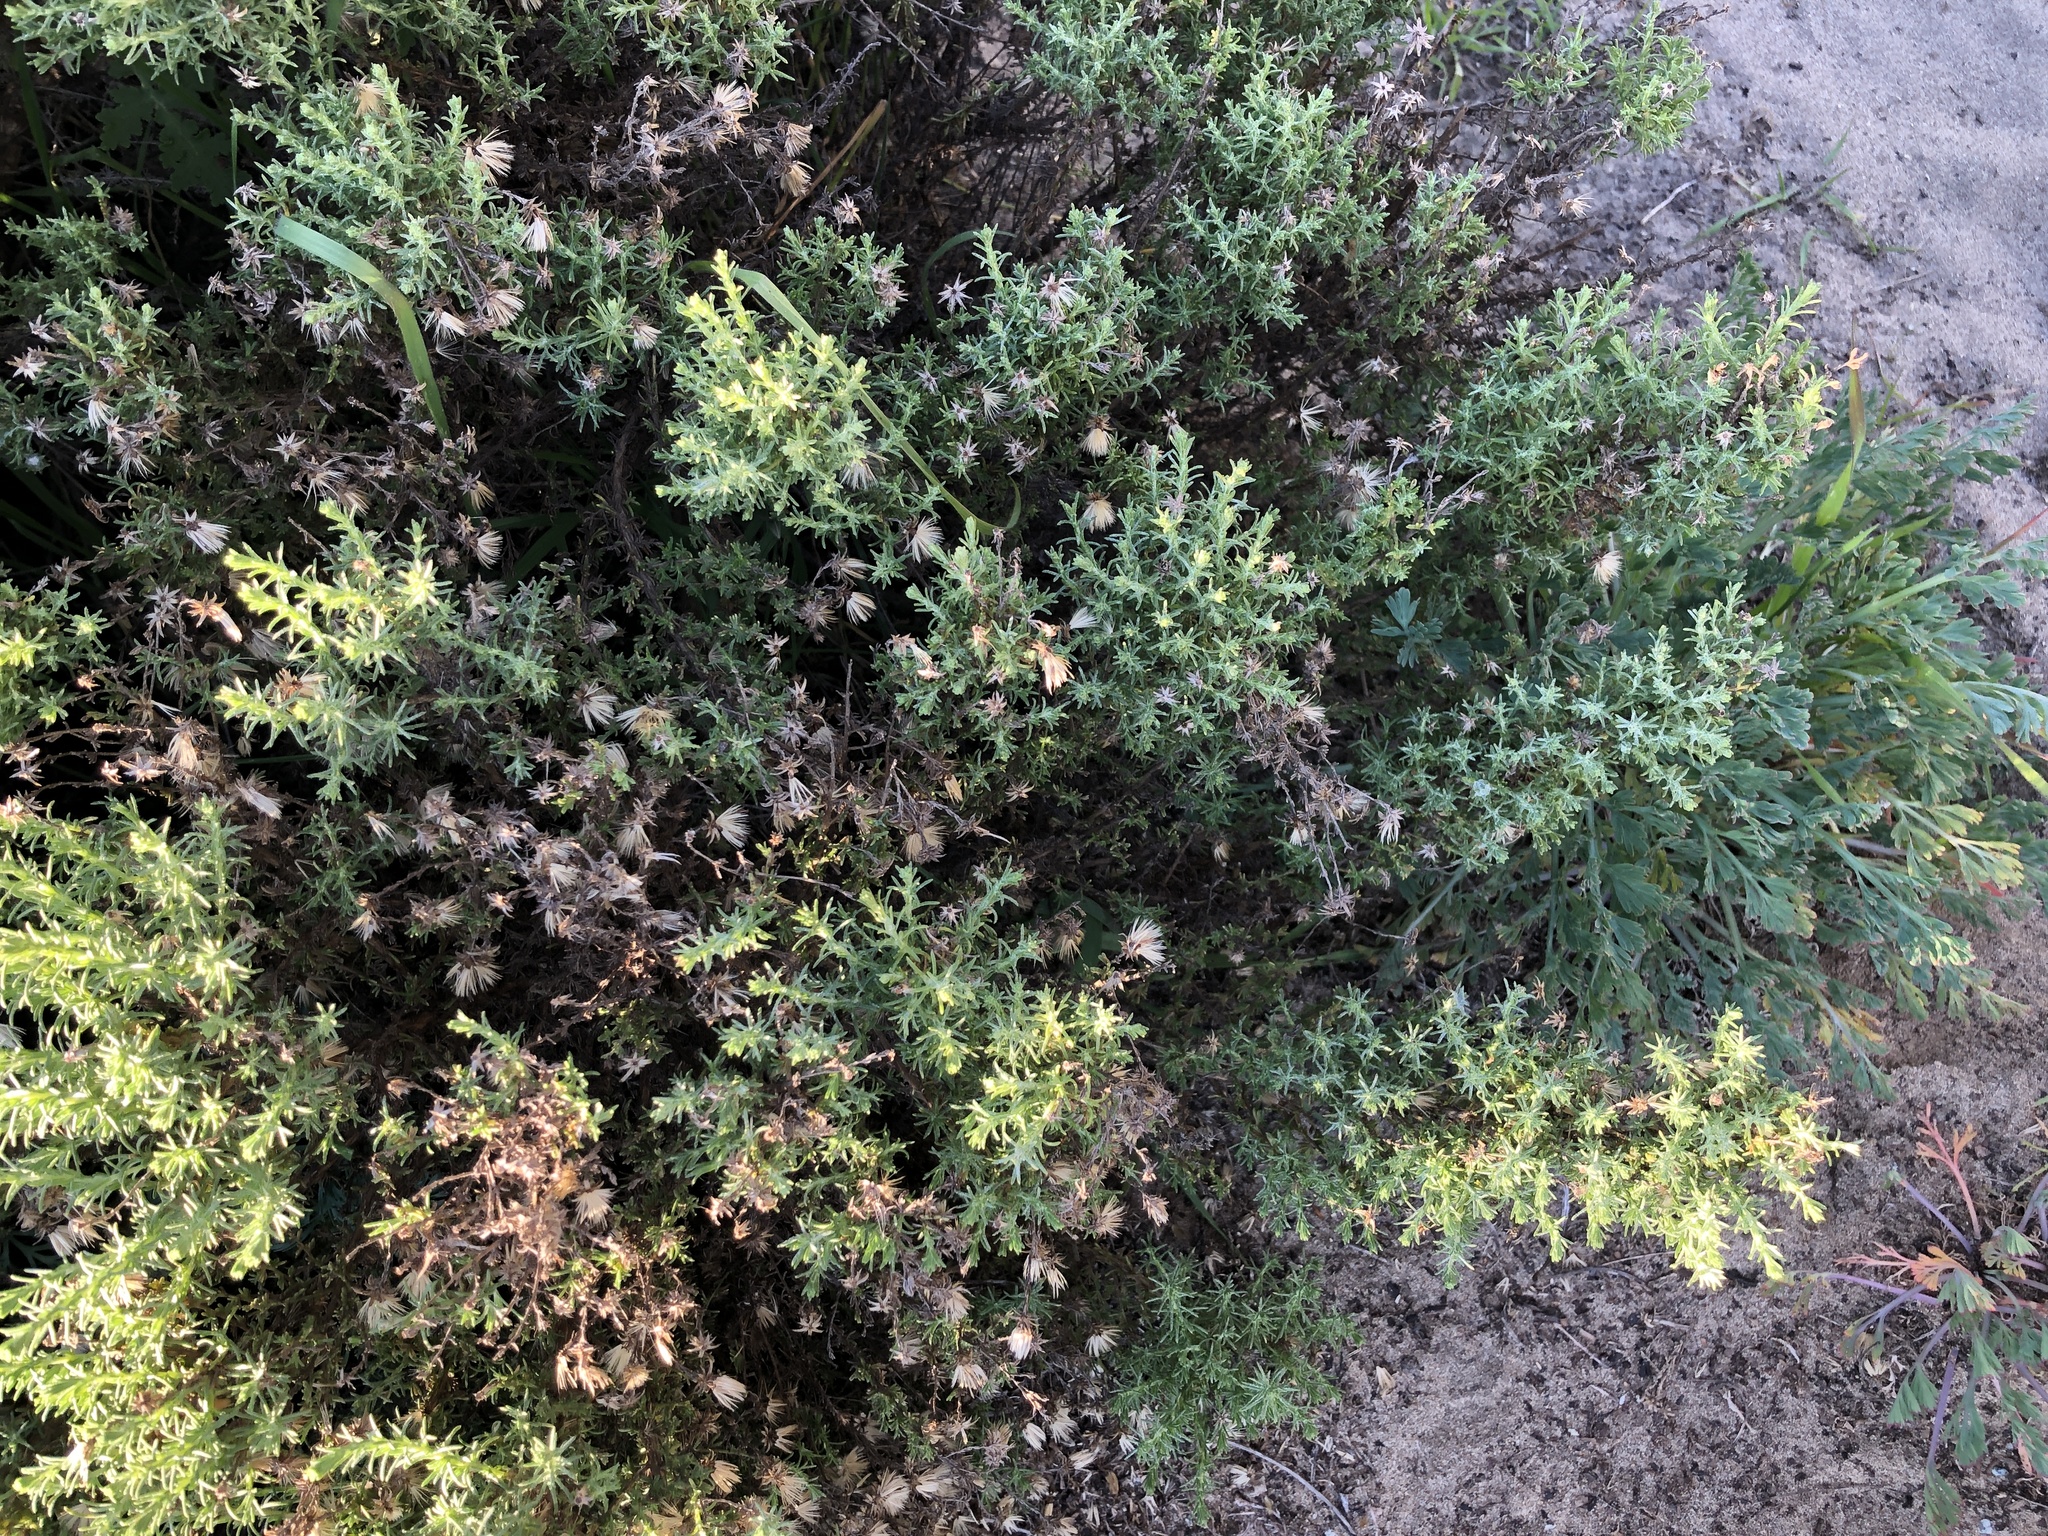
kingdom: Plantae
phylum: Tracheophyta
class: Magnoliopsida
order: Asterales
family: Asteraceae
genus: Ericameria
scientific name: Ericameria ericoides
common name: California goldenbush
